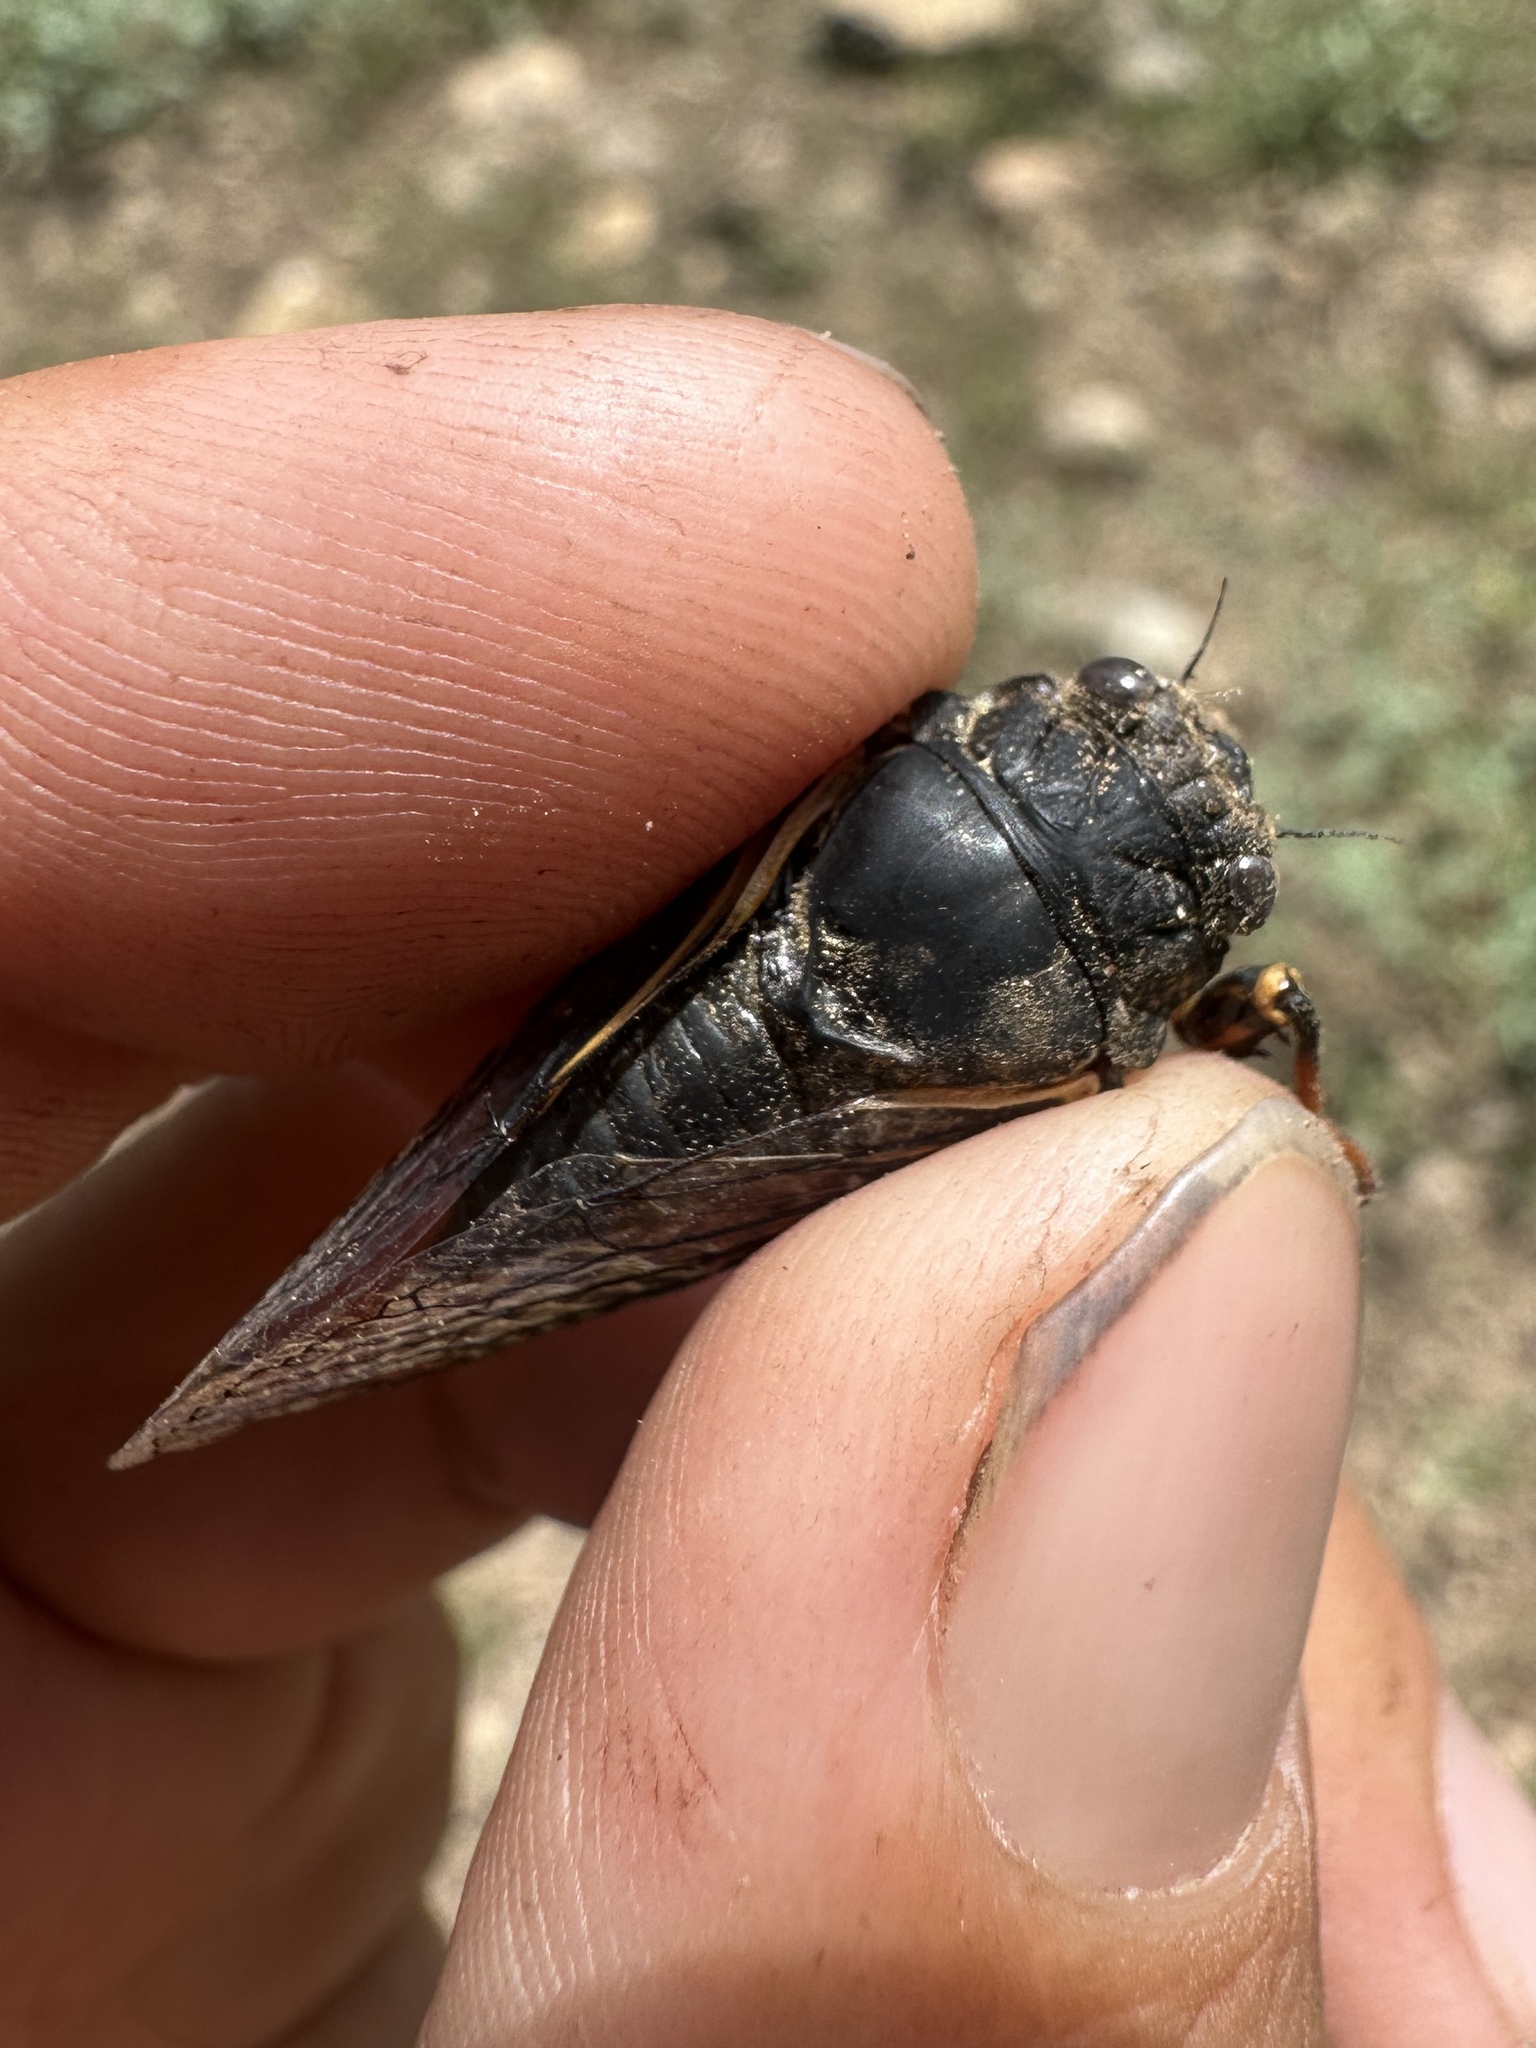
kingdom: Animalia
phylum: Arthropoda
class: Insecta
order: Hemiptera
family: Cicadidae
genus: Okanagana
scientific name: Okanagana nigrodorsata
